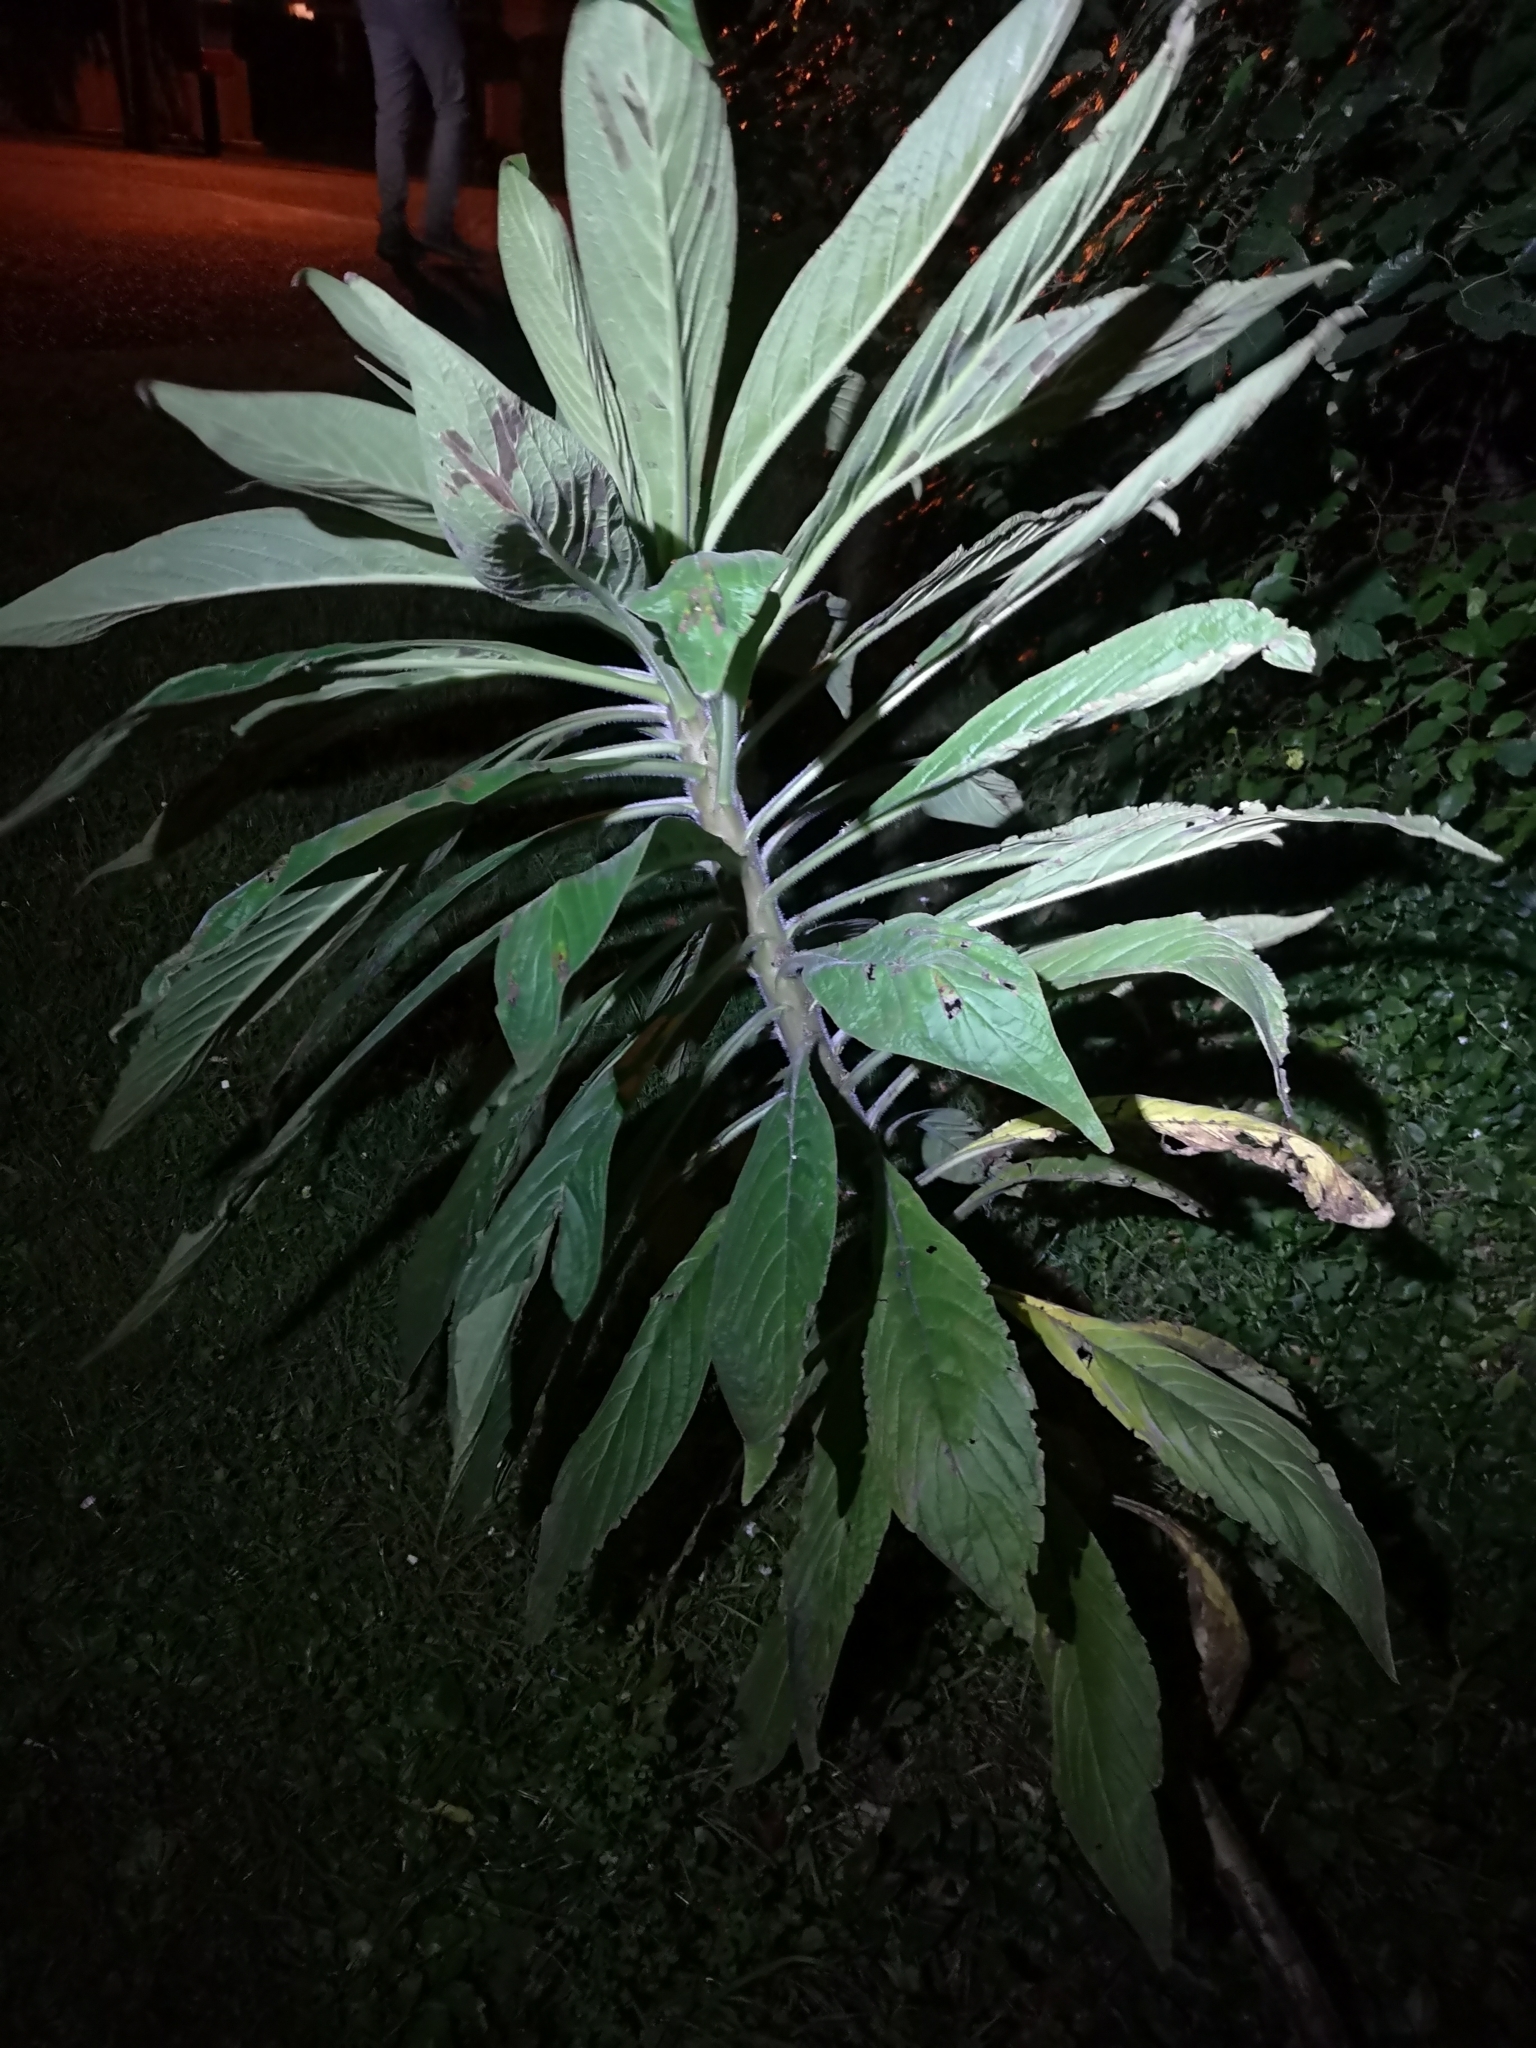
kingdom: Plantae
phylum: Tracheophyta
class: Magnoliopsida
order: Boraginales
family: Boraginaceae
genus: Echium
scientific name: Echium pininana
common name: Giant viper's-bugloss
